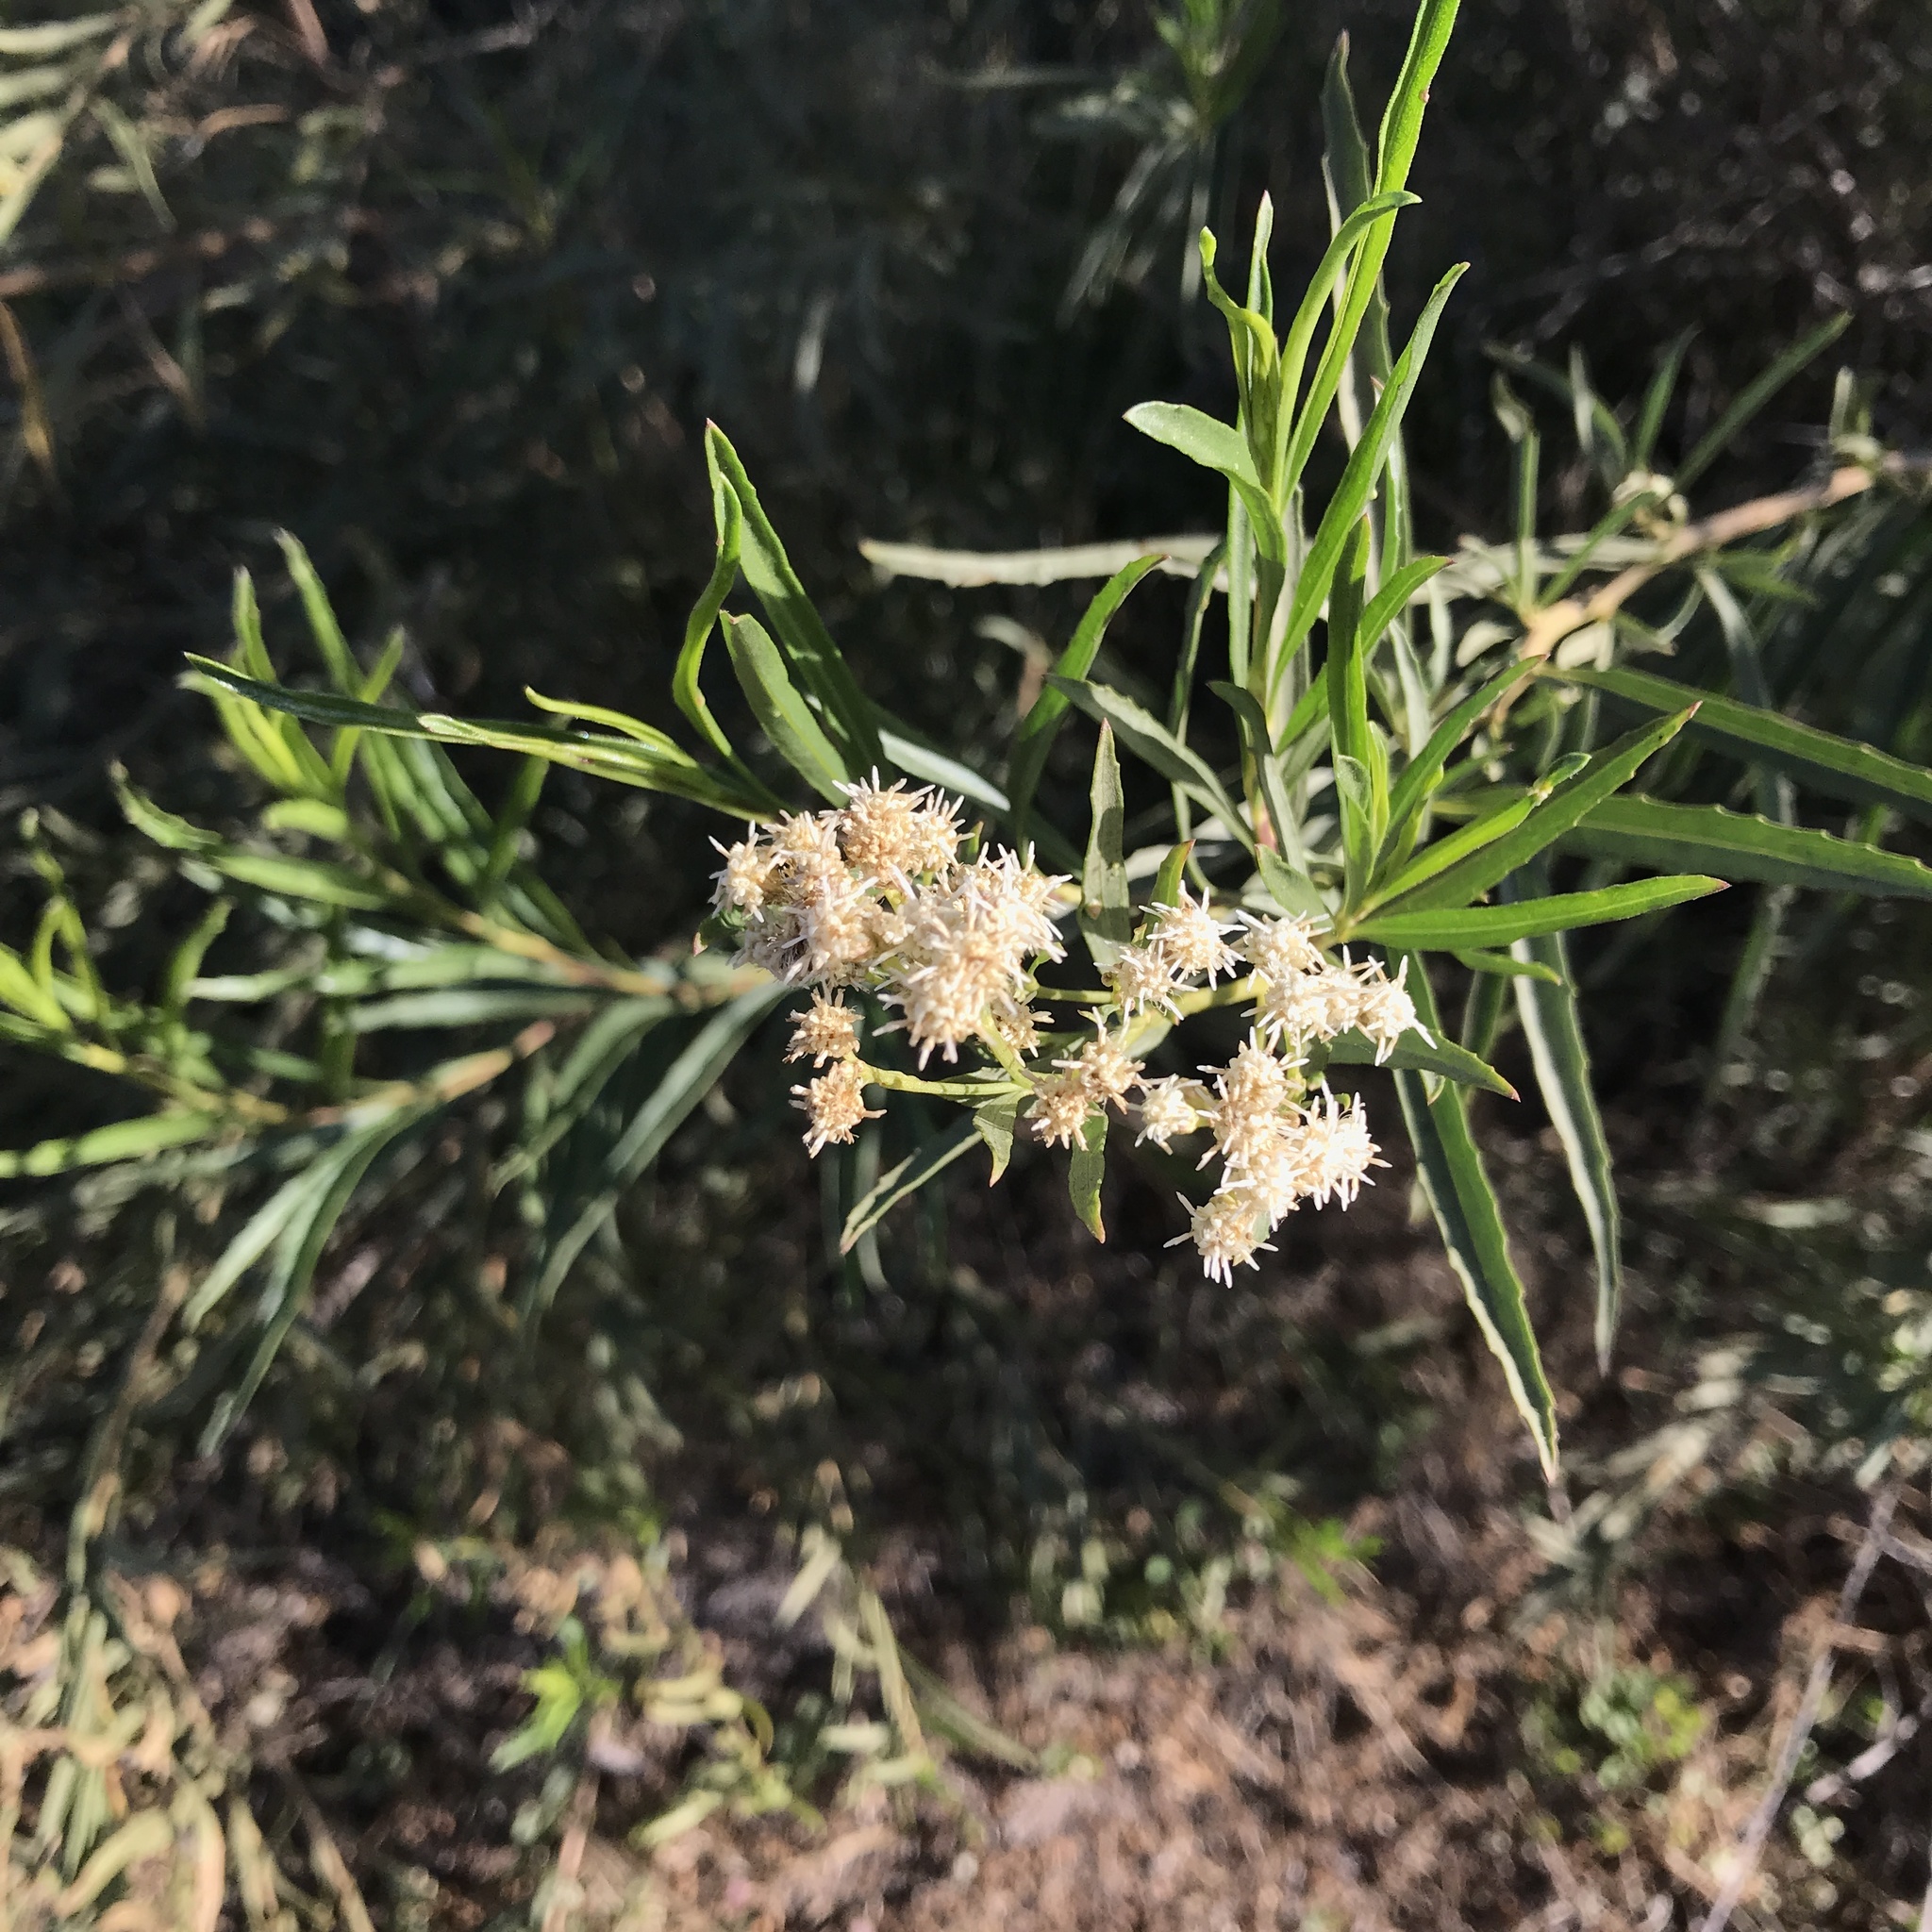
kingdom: Plantae
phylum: Tracheophyta
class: Magnoliopsida
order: Asterales
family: Asteraceae
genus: Baccharis
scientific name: Baccharis salicifolia
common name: Sticky baccharis
